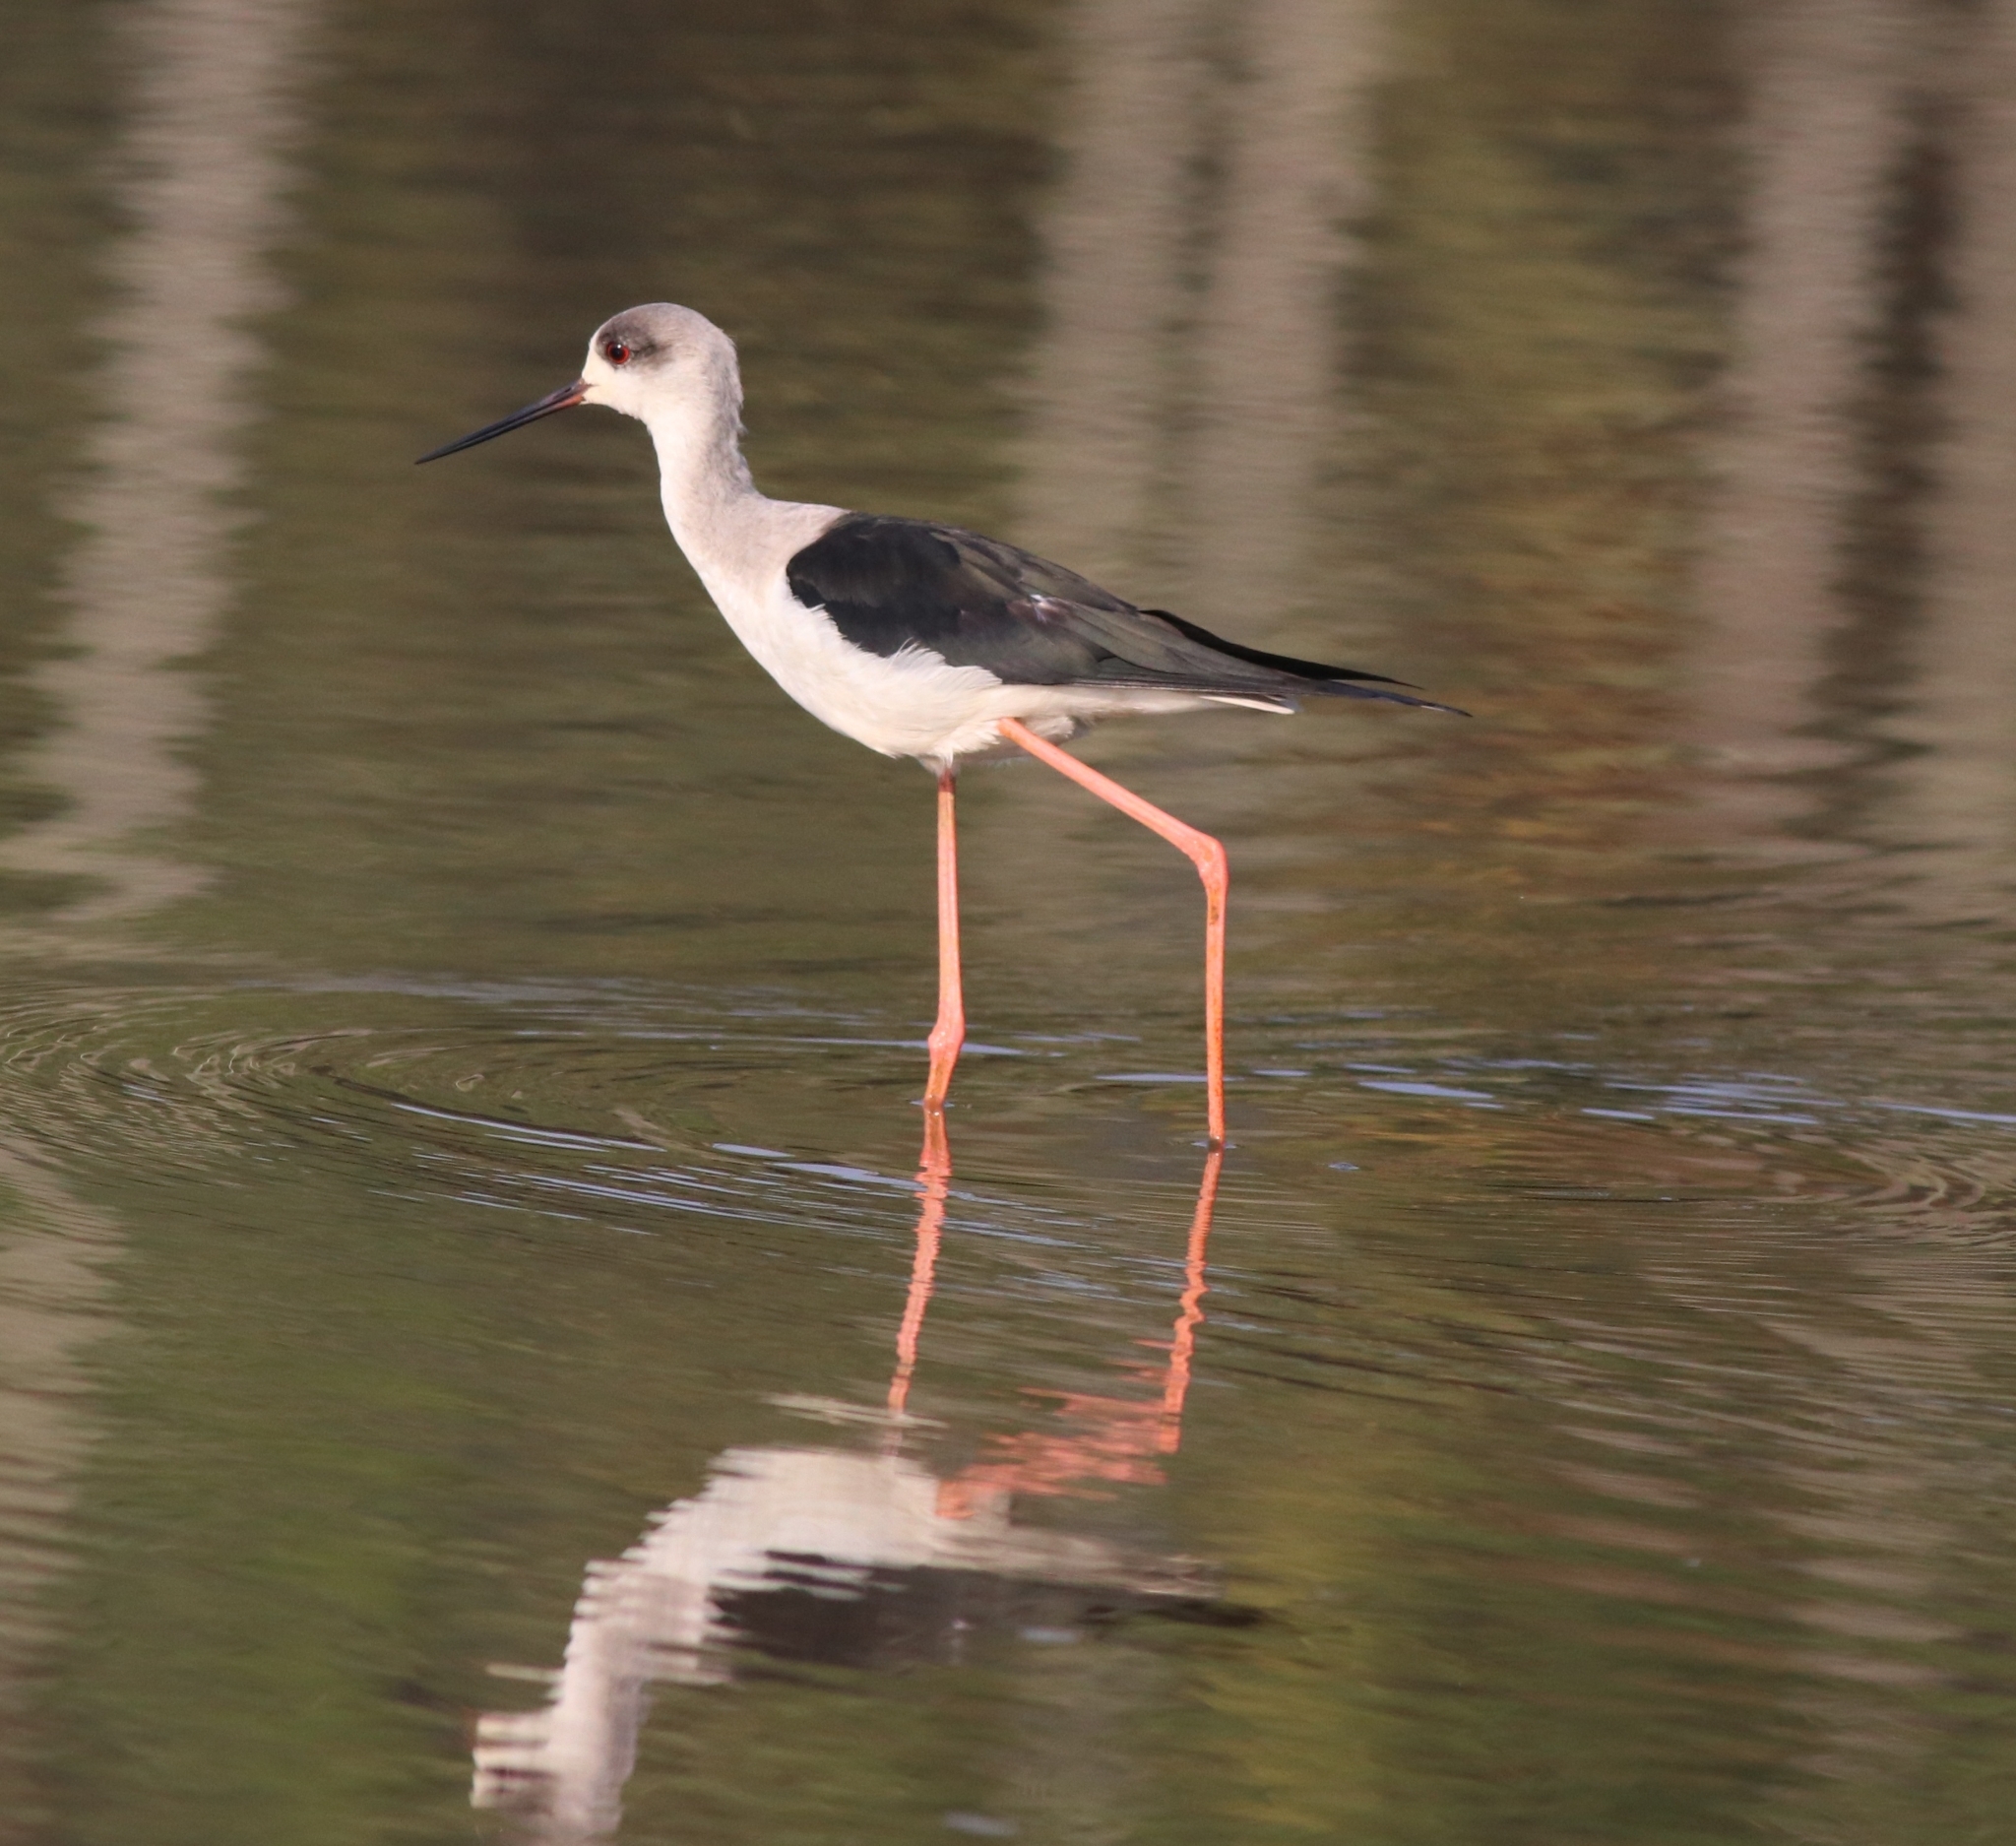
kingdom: Animalia
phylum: Chordata
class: Aves
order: Charadriiformes
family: Recurvirostridae
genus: Himantopus
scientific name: Himantopus himantopus
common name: Black-winged stilt
